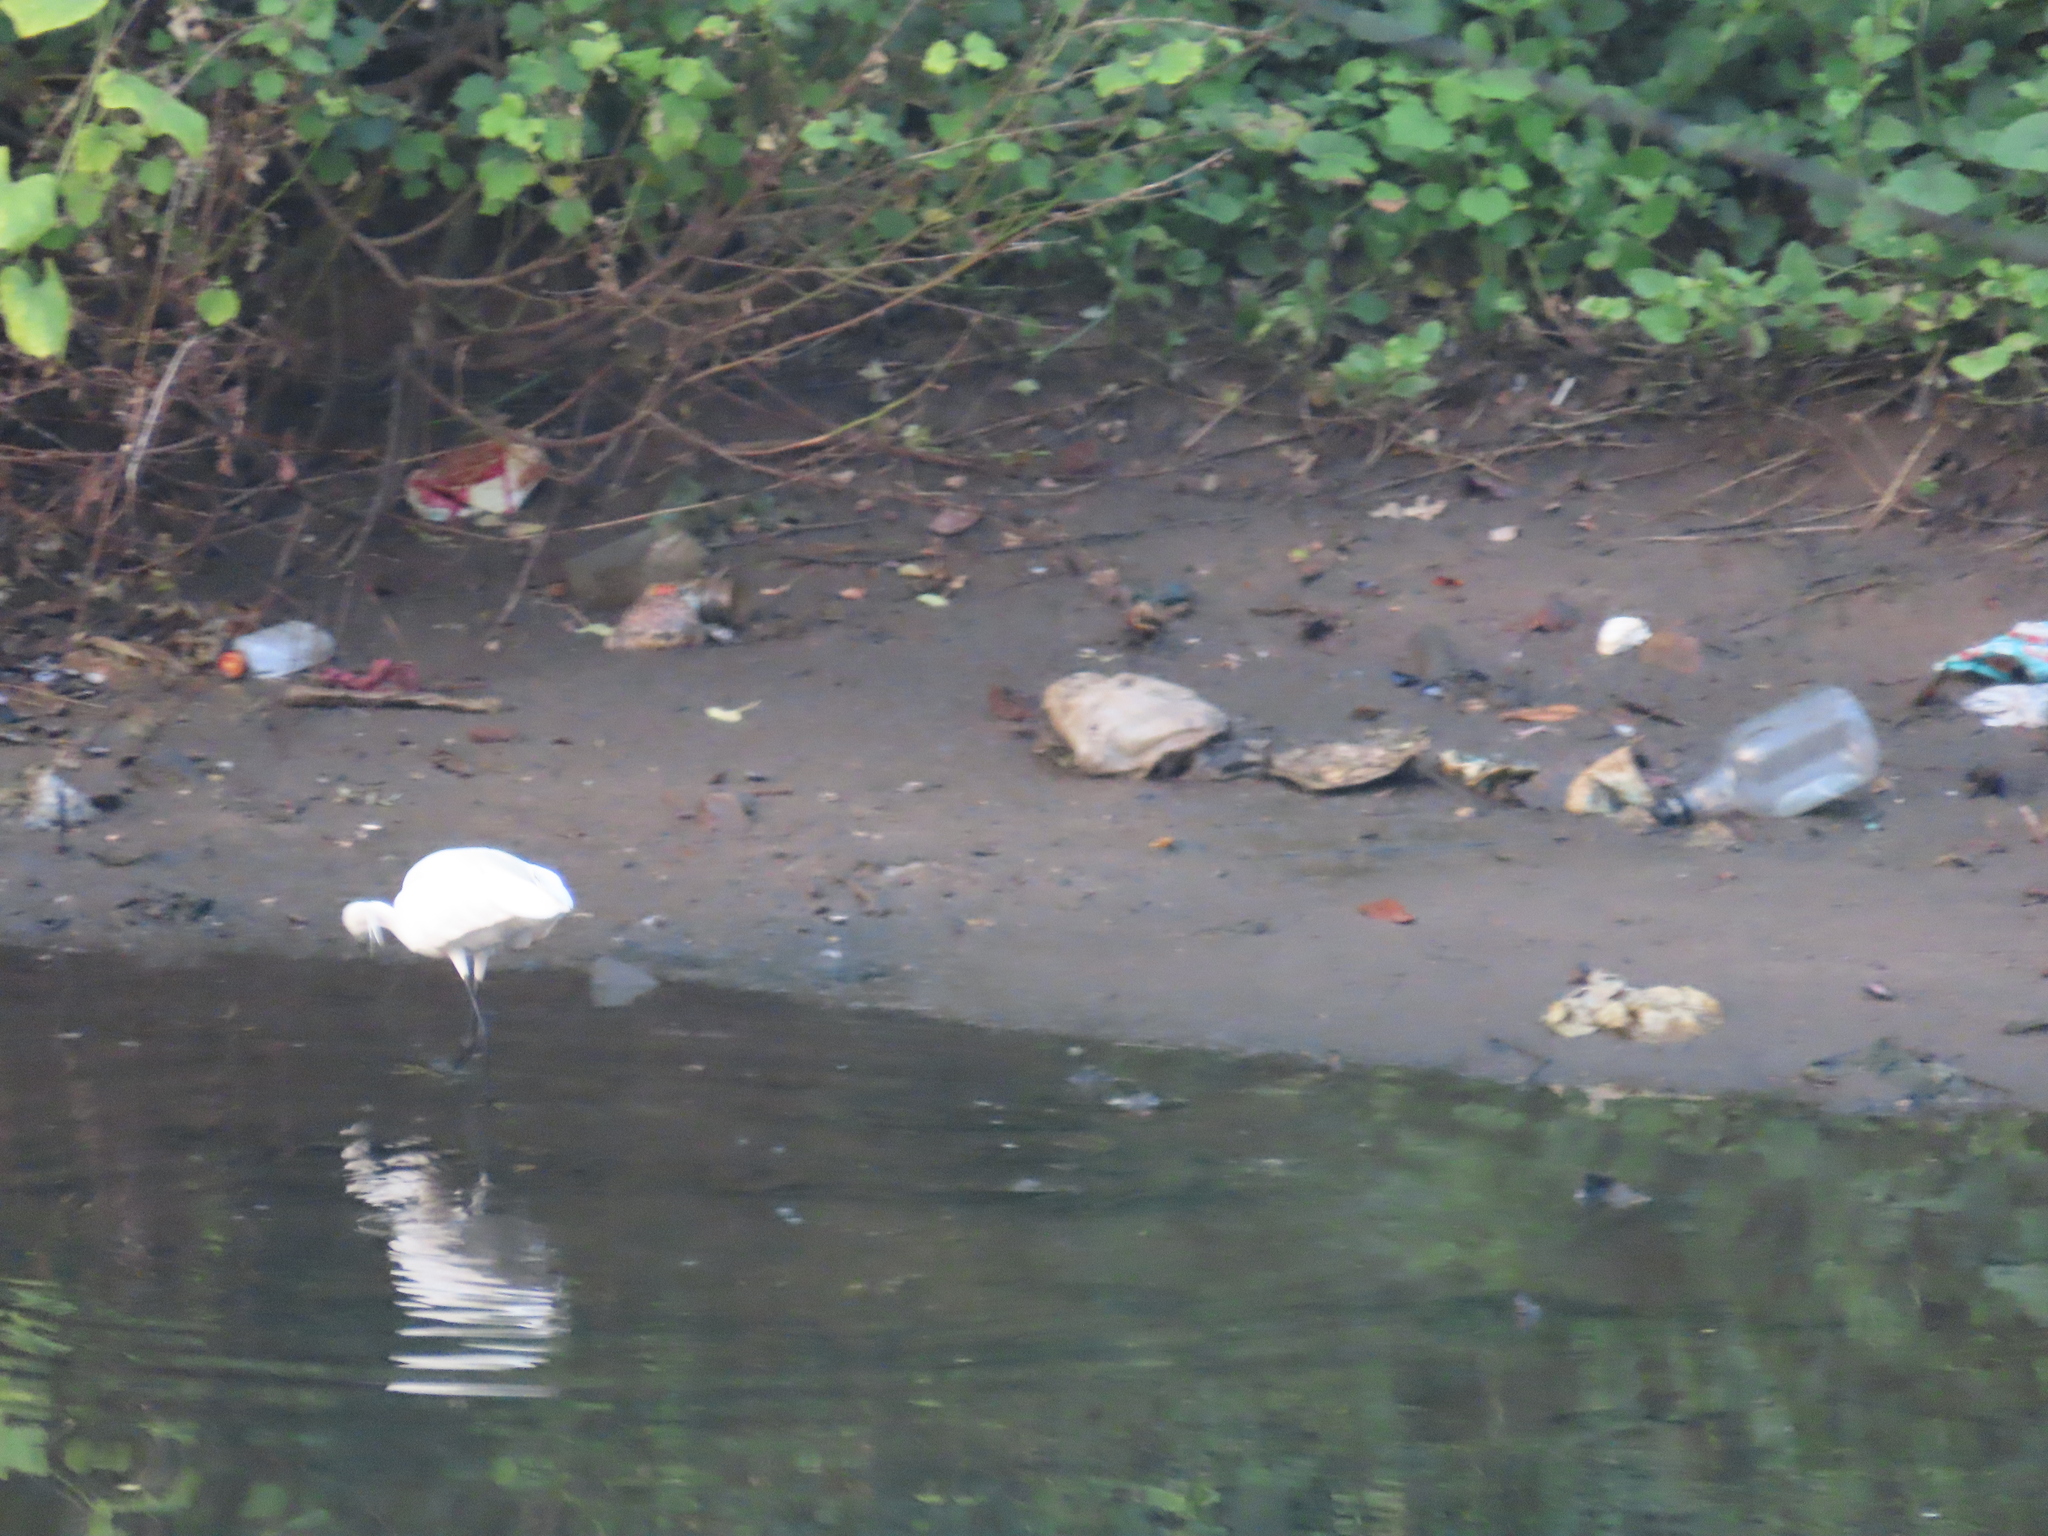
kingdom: Animalia
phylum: Chordata
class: Aves
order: Pelecaniformes
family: Ardeidae
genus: Egretta
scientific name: Egretta garzetta
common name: Little egret
